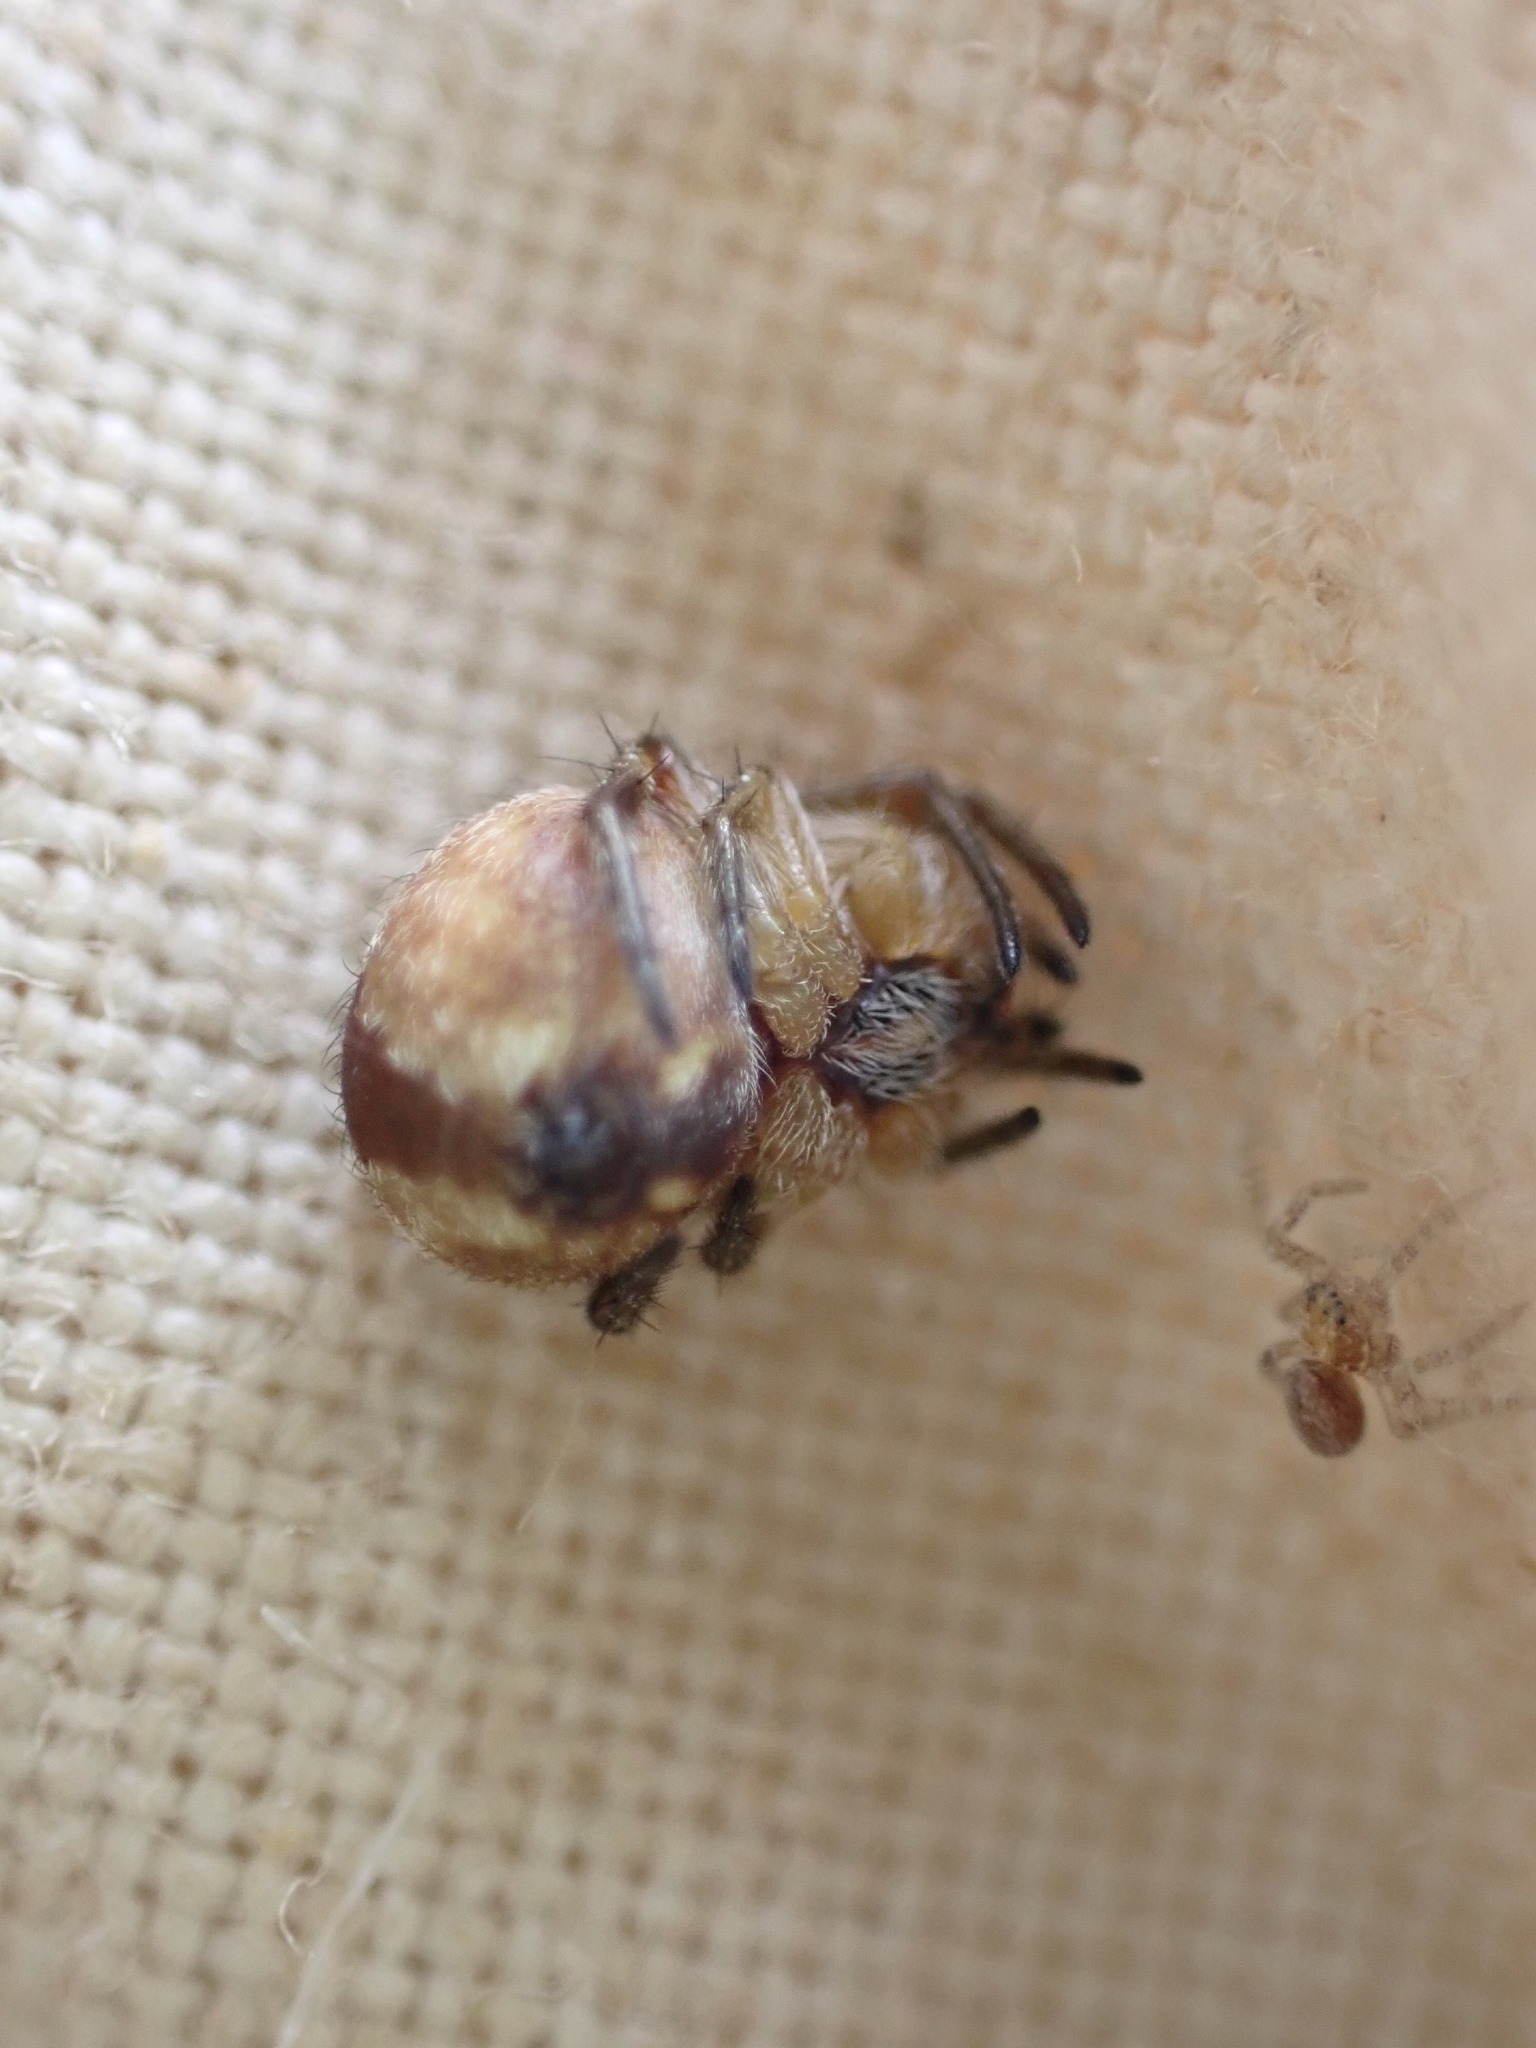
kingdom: Animalia
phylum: Arthropoda
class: Arachnida
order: Araneae
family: Araneidae
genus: Agalenatea
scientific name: Agalenatea redii
